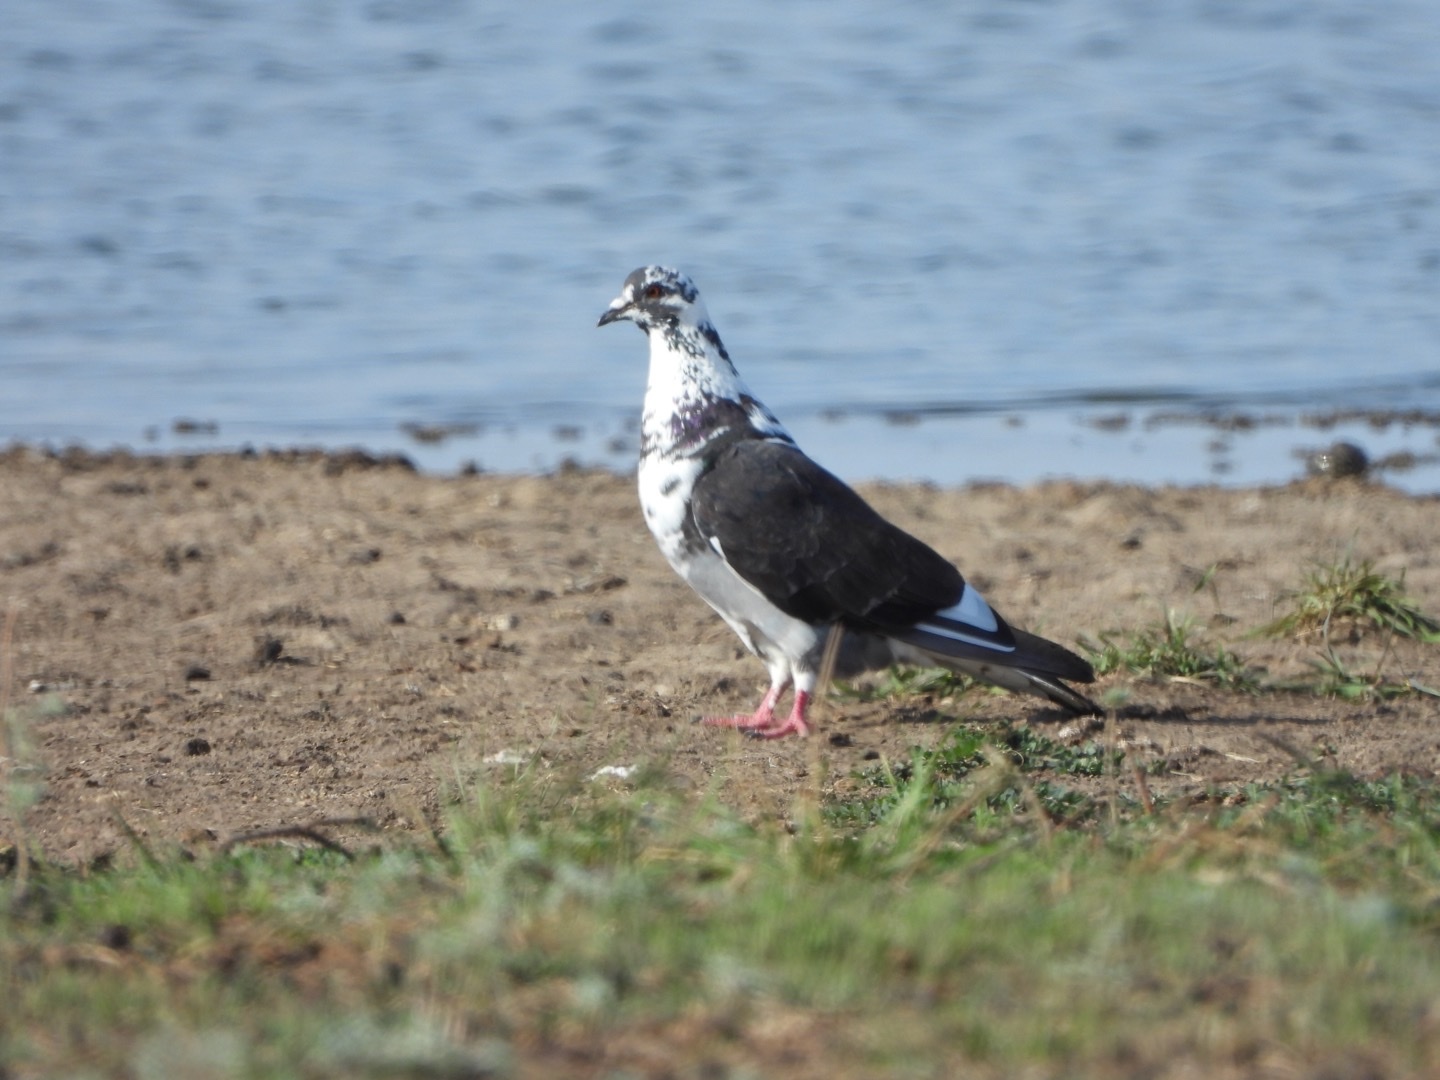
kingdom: Animalia
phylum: Chordata
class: Aves
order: Columbiformes
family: Columbidae
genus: Columba
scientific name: Columba livia
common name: Rock pigeon
